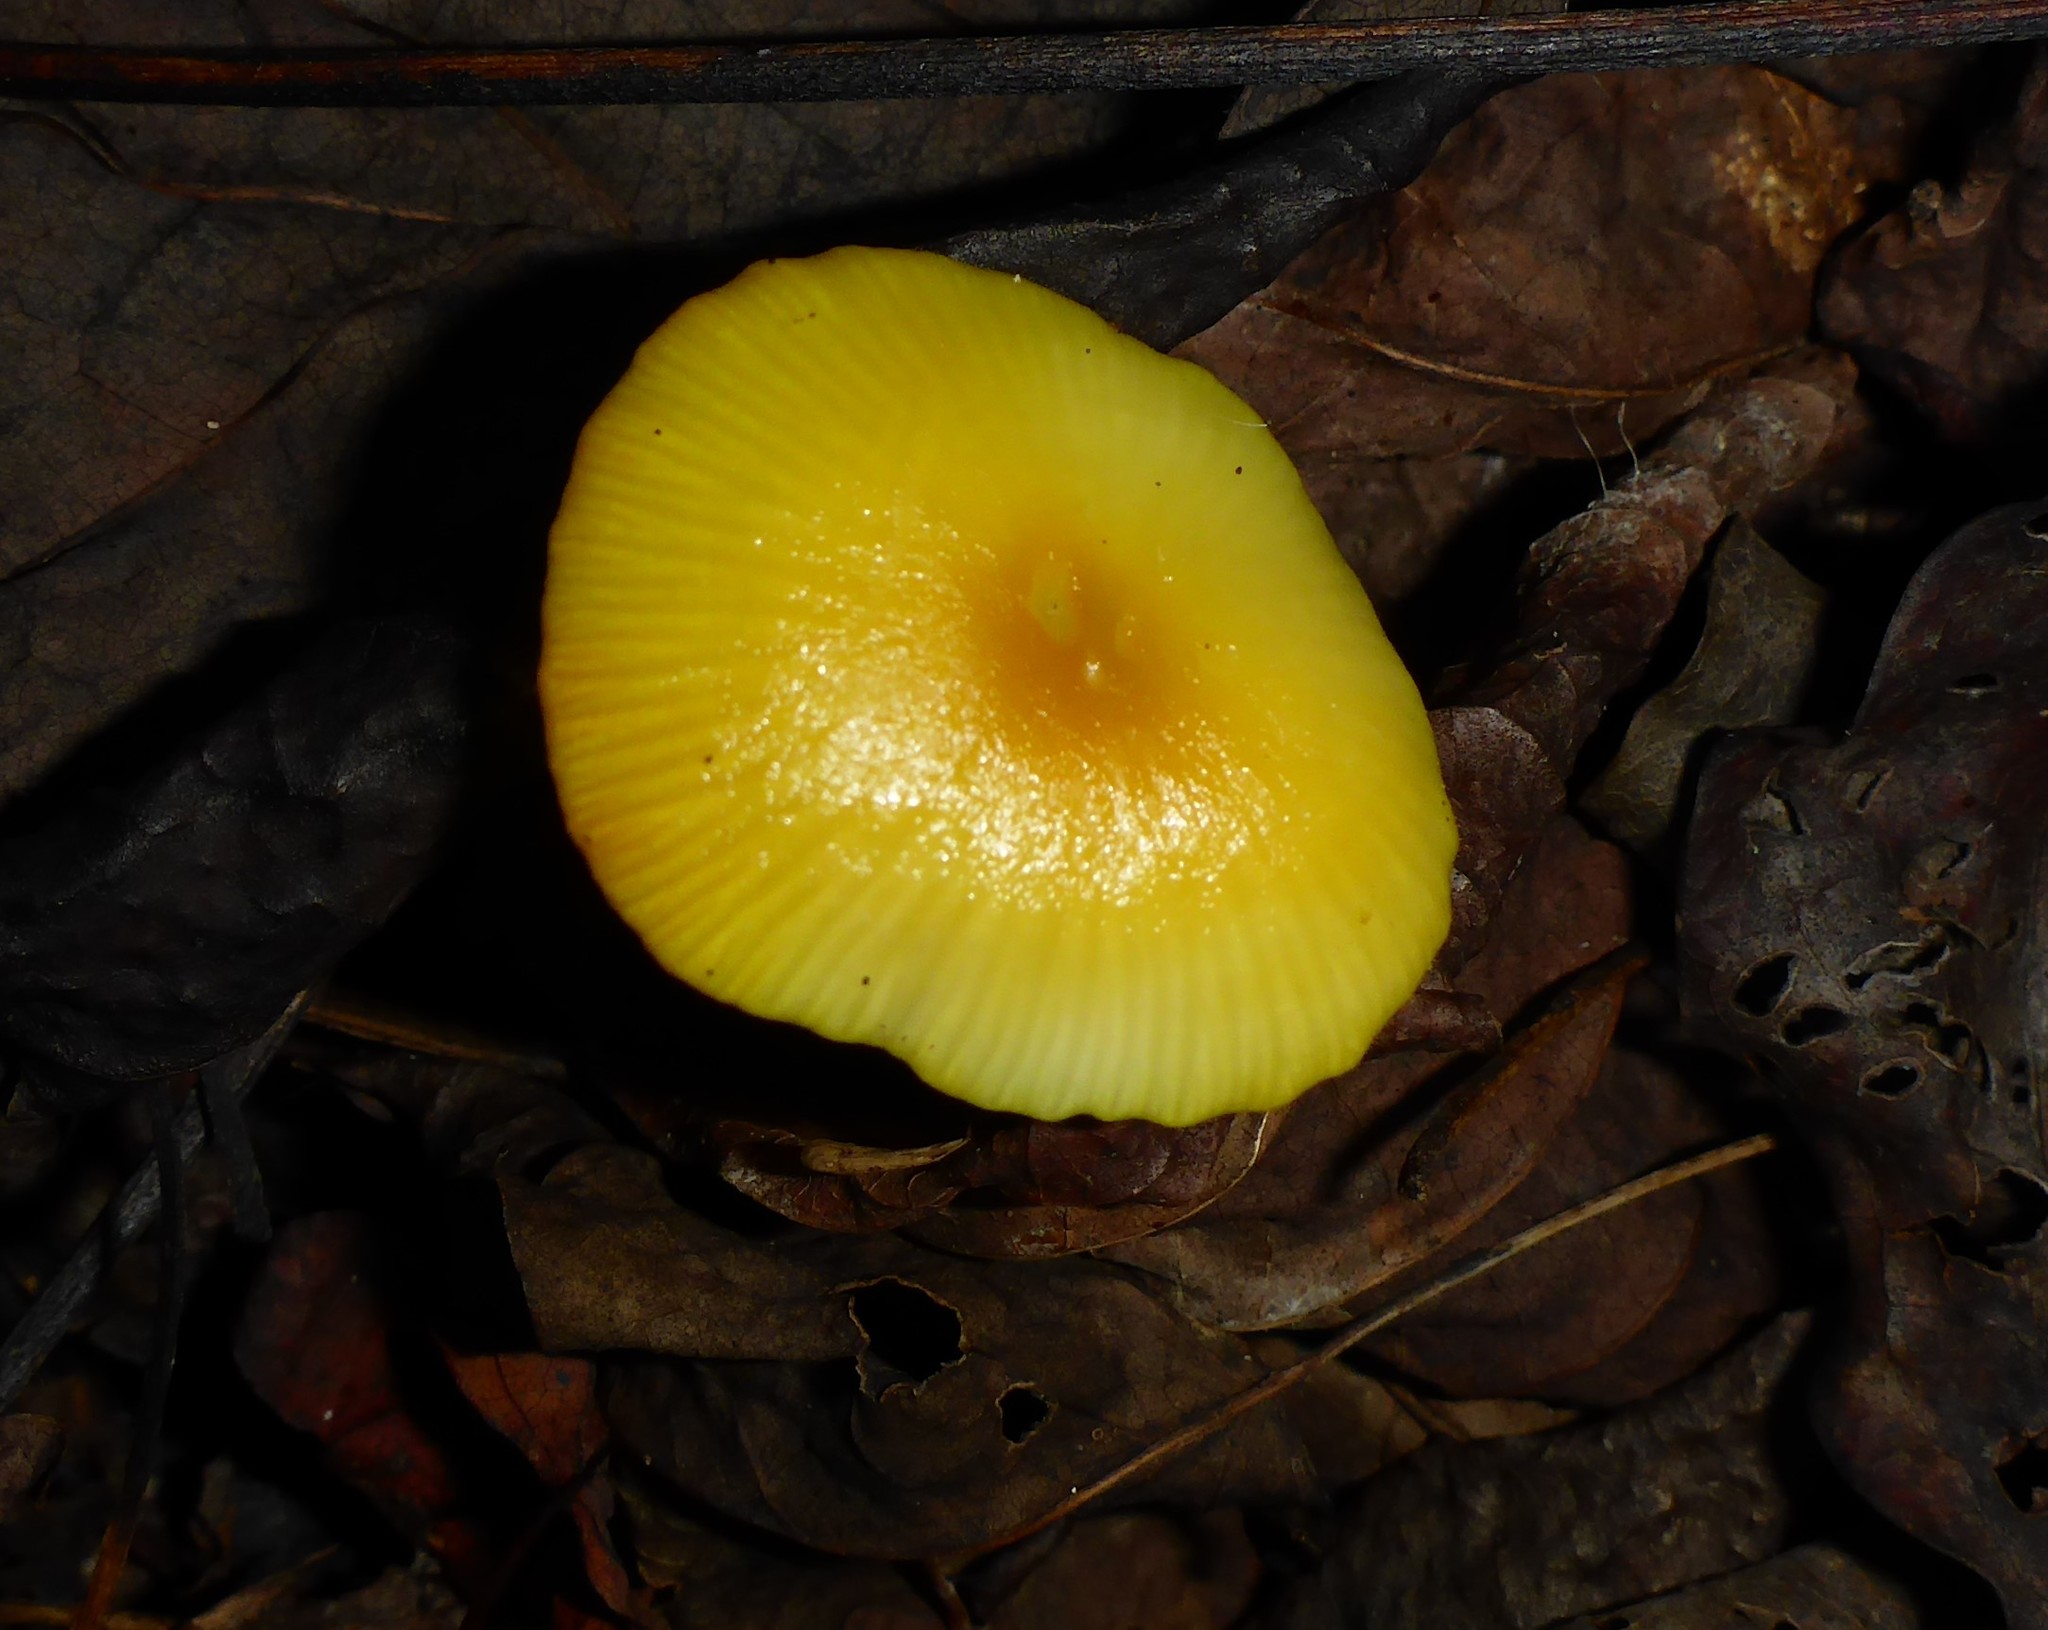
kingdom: Fungi
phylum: Basidiomycota
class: Agaricomycetes
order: Agaricales
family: Hygrophoraceae
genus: Hygrocybe
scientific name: Hygrocybe flavescens
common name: Golden waxy cap
